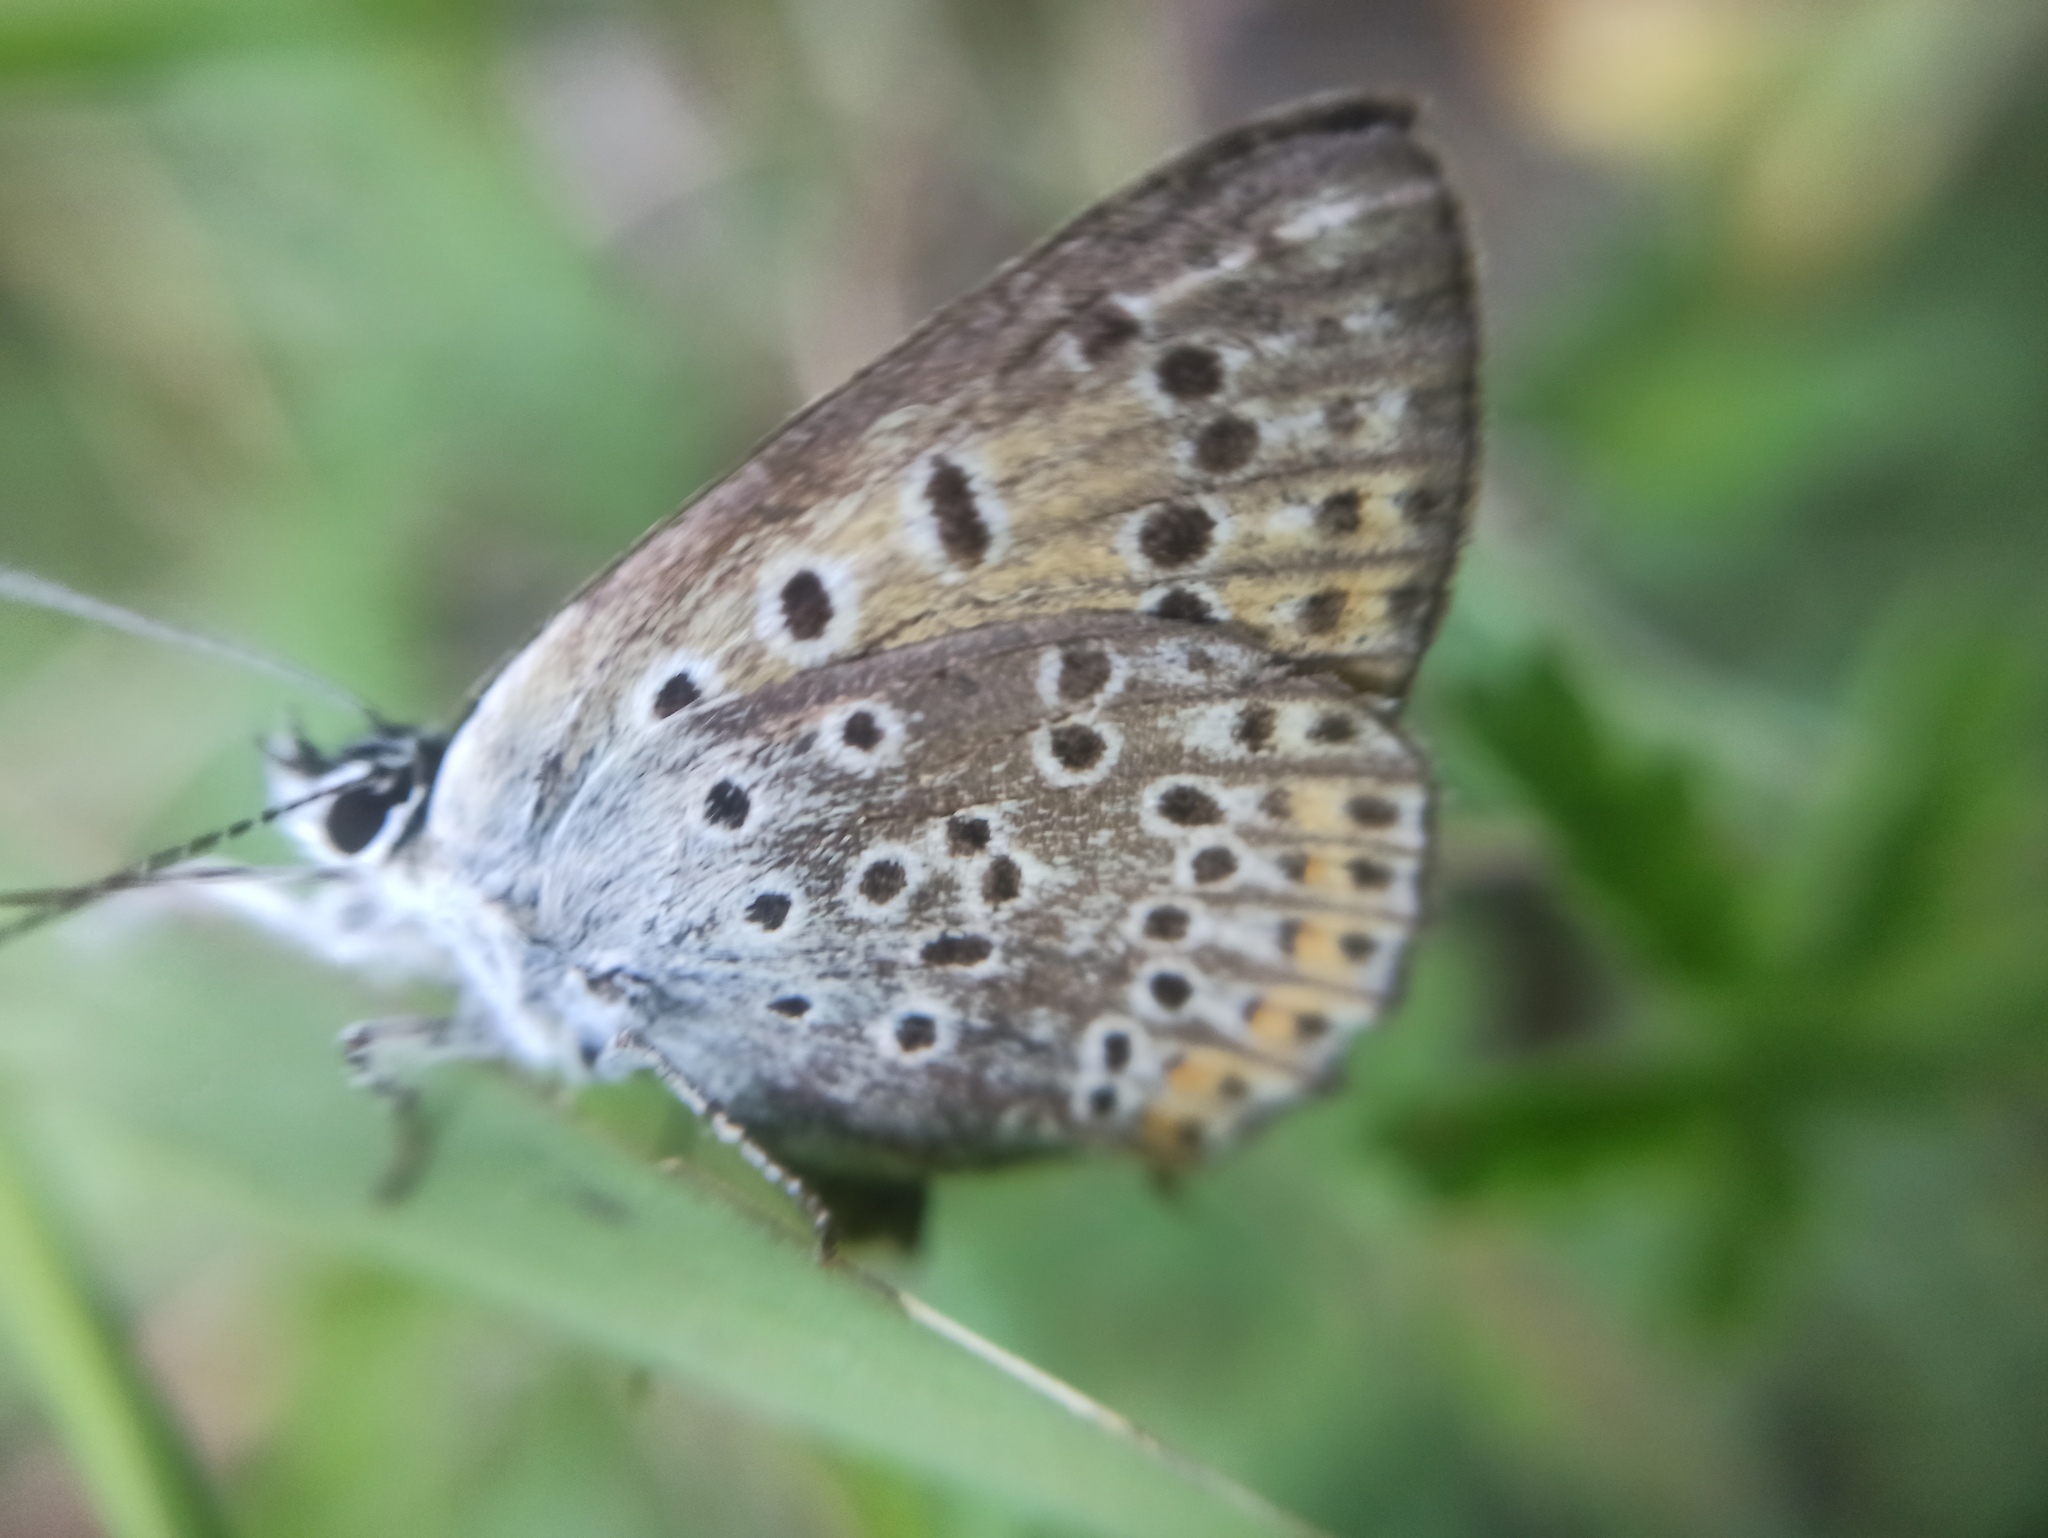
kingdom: Animalia
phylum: Arthropoda
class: Insecta
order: Lepidoptera
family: Lycaenidae
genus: Loweia
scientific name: Loweia tityrus
